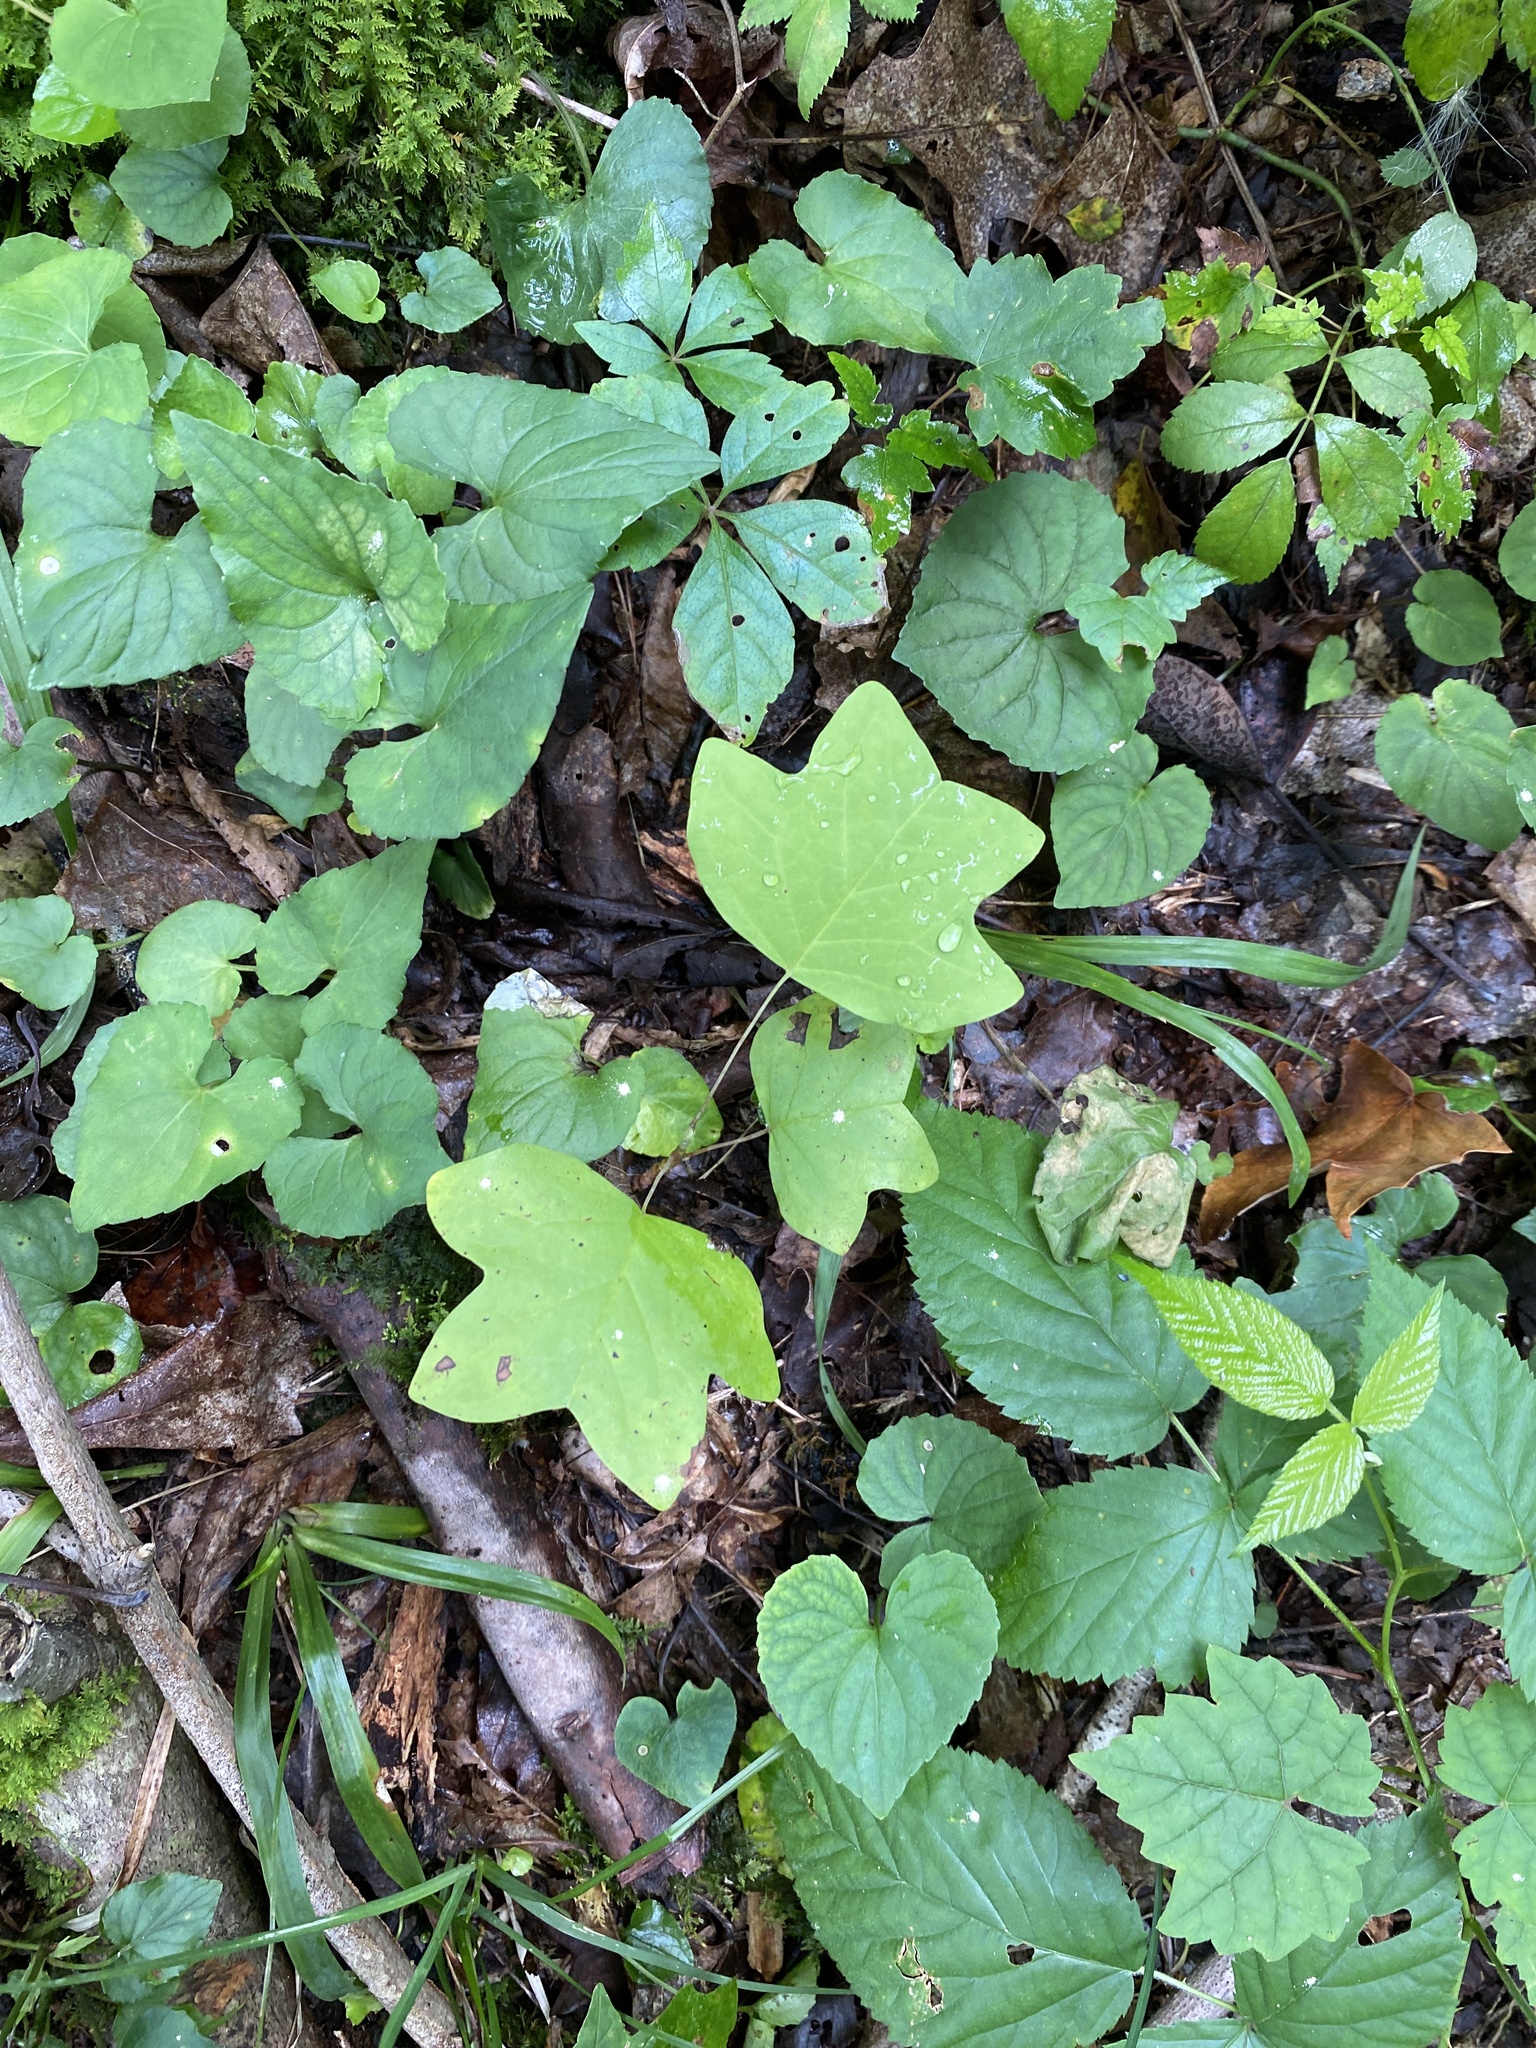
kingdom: Plantae
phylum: Tracheophyta
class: Magnoliopsida
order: Magnoliales
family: Magnoliaceae
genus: Liriodendron
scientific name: Liriodendron tulipifera
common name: Tulip tree
